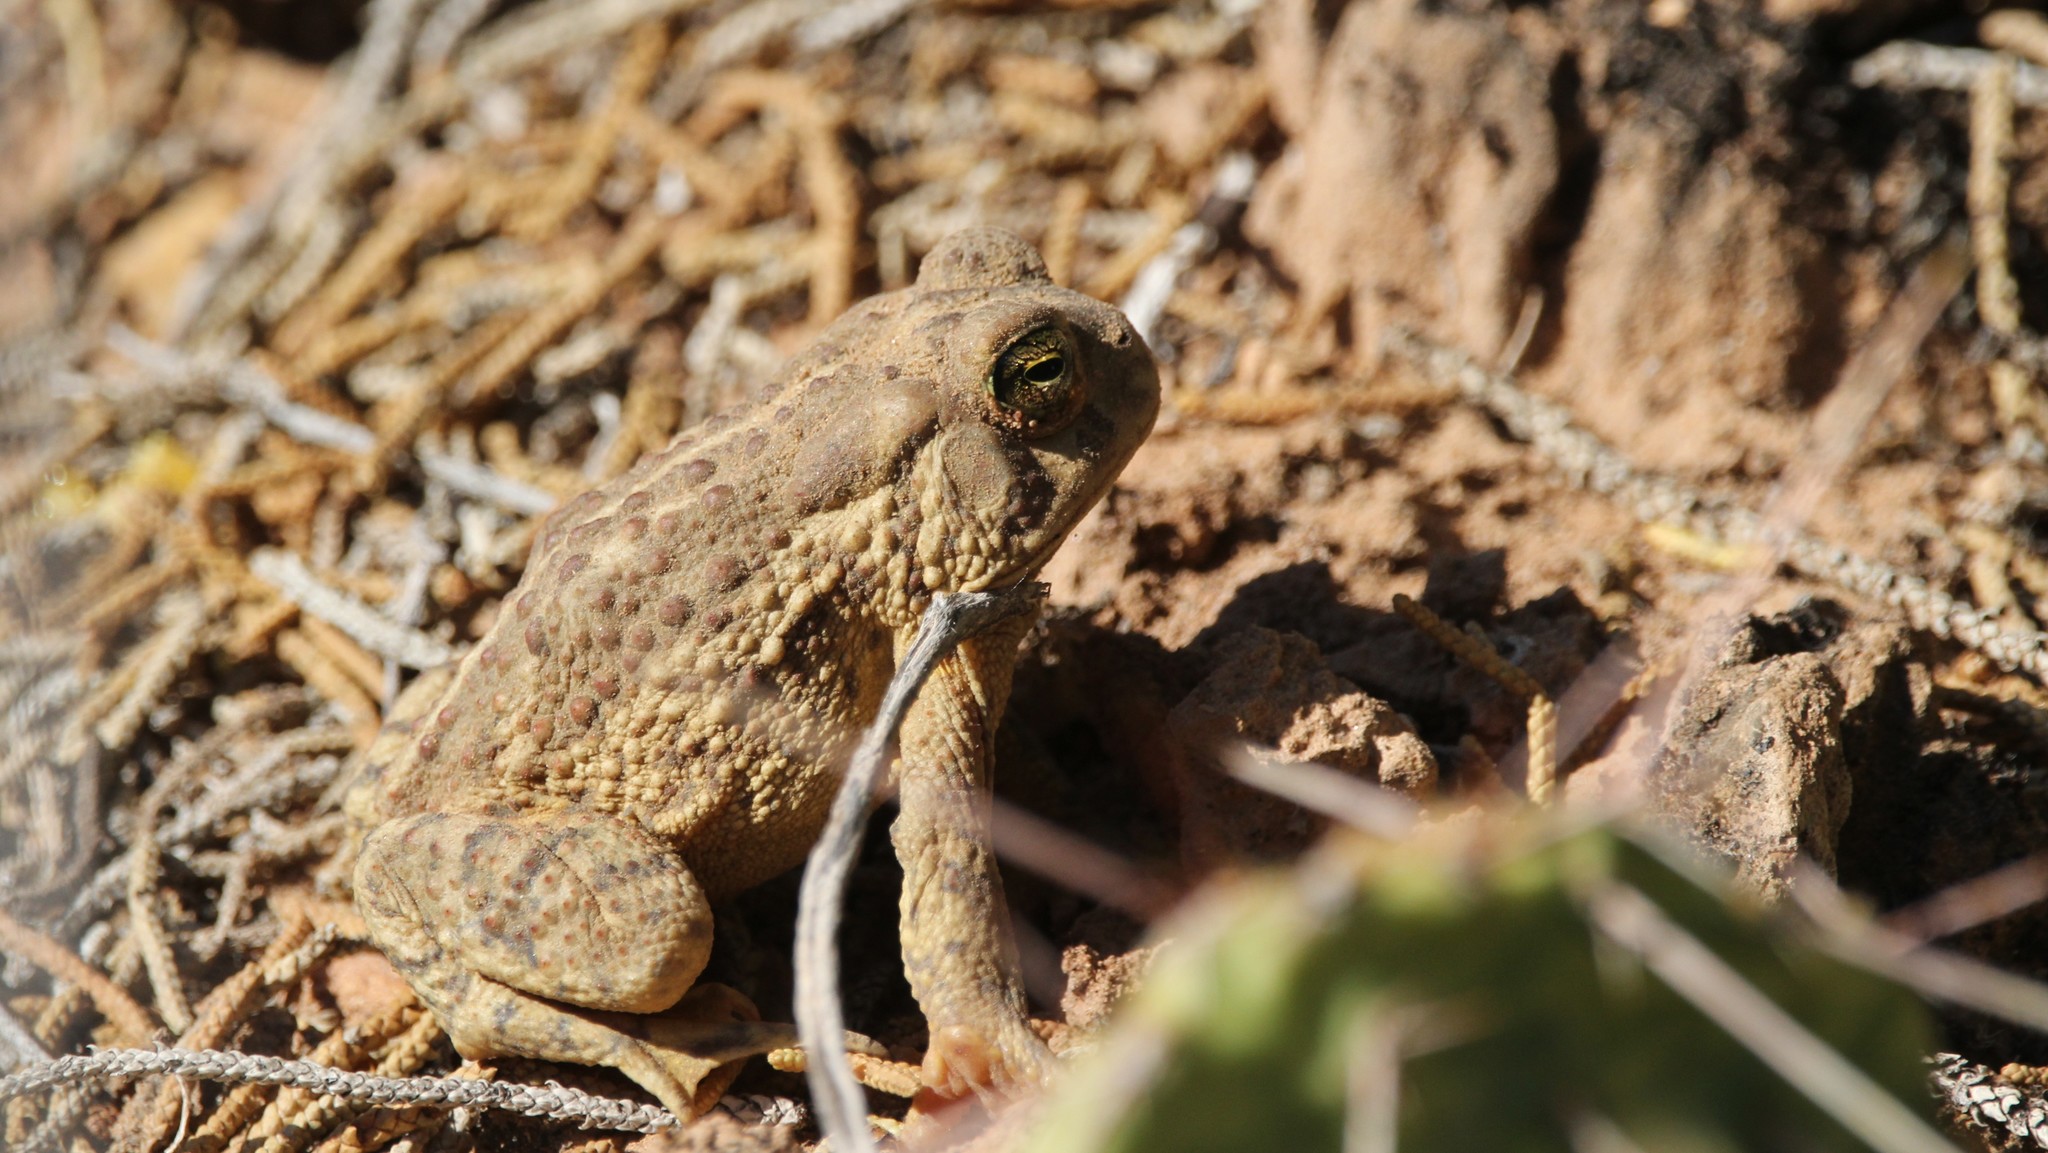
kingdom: Animalia
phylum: Chordata
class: Amphibia
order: Anura
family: Bufonidae
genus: Anaxyrus
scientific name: Anaxyrus woodhousii
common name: Woodhouse's toad
